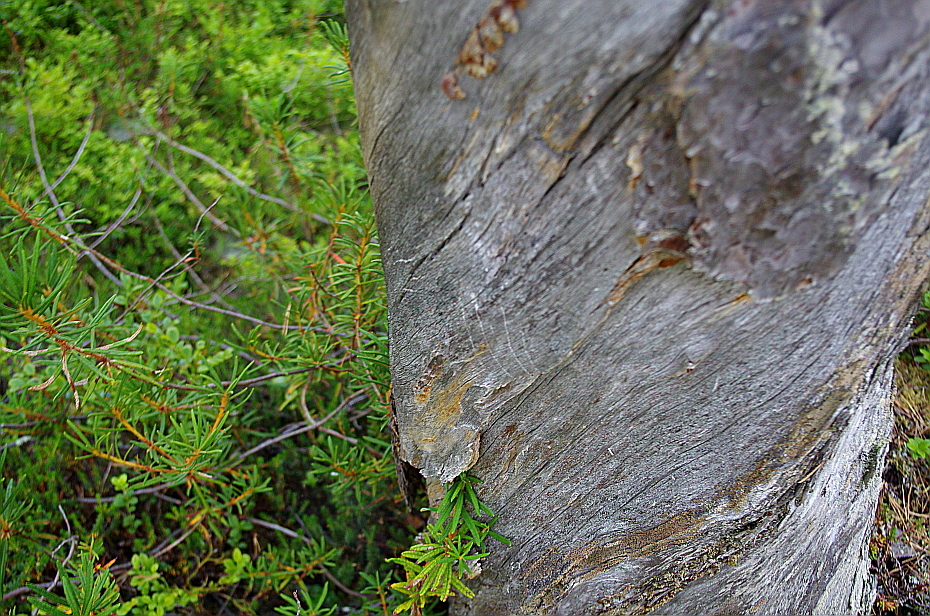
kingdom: Plantae
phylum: Tracheophyta
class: Pinopsida
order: Pinales
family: Pinaceae
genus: Pinus
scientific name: Pinus sylvestris
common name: Scots pine
